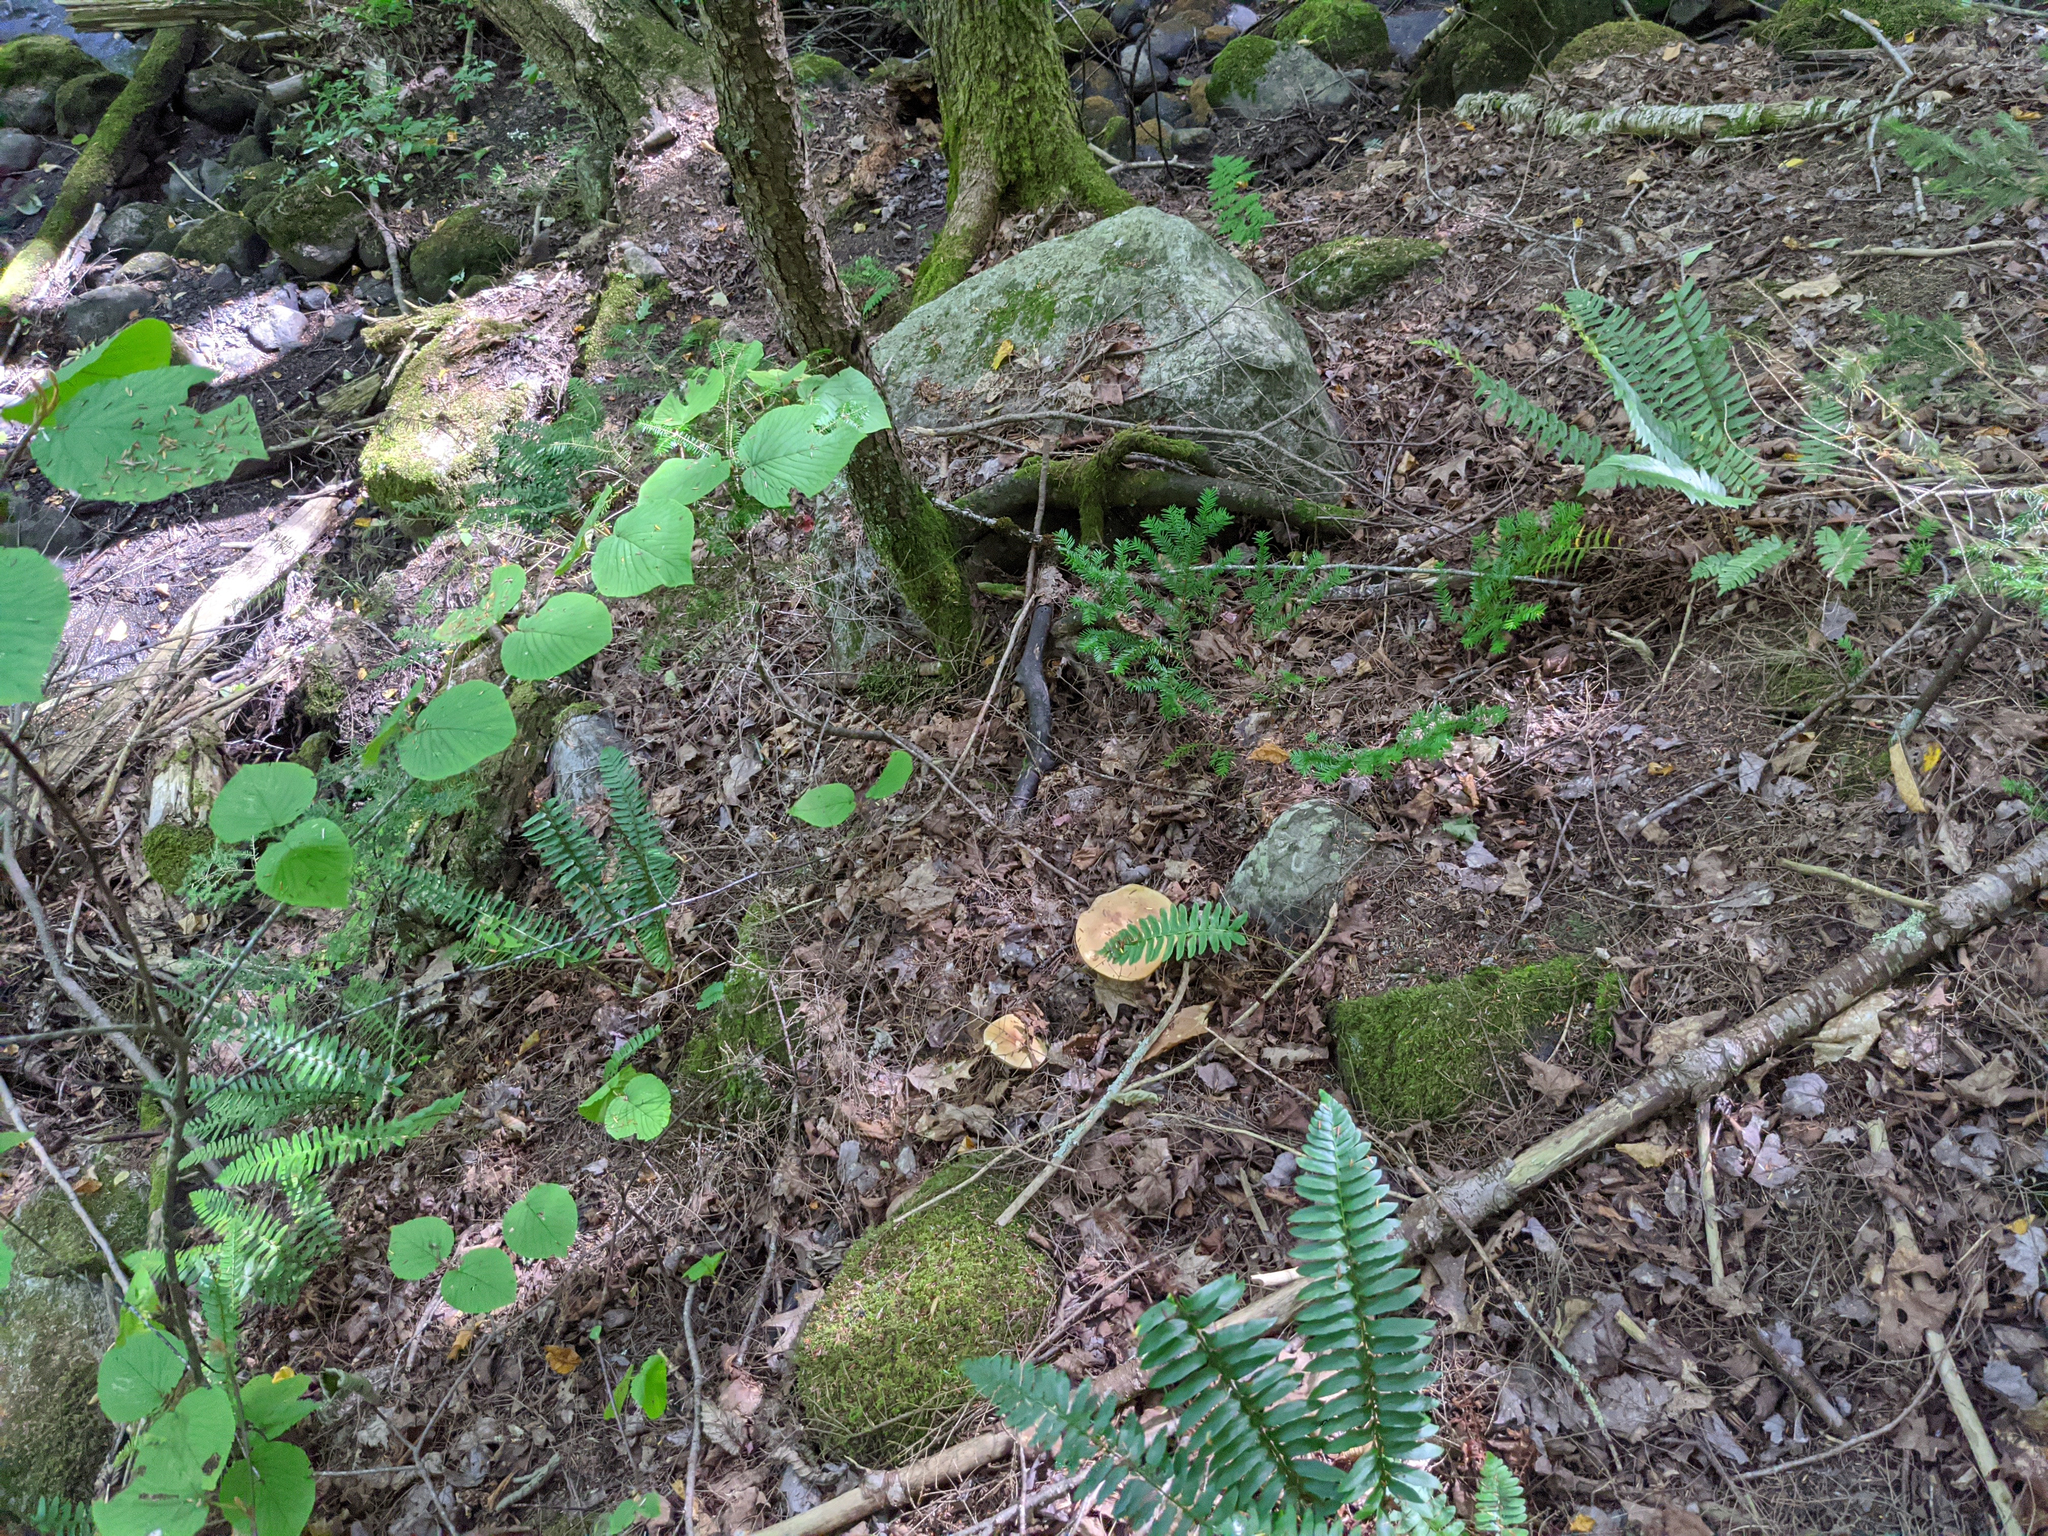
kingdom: Plantae
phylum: Tracheophyta
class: Magnoliopsida
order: Dipsacales
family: Viburnaceae
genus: Viburnum
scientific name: Viburnum lantanoides
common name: Hobblebush
